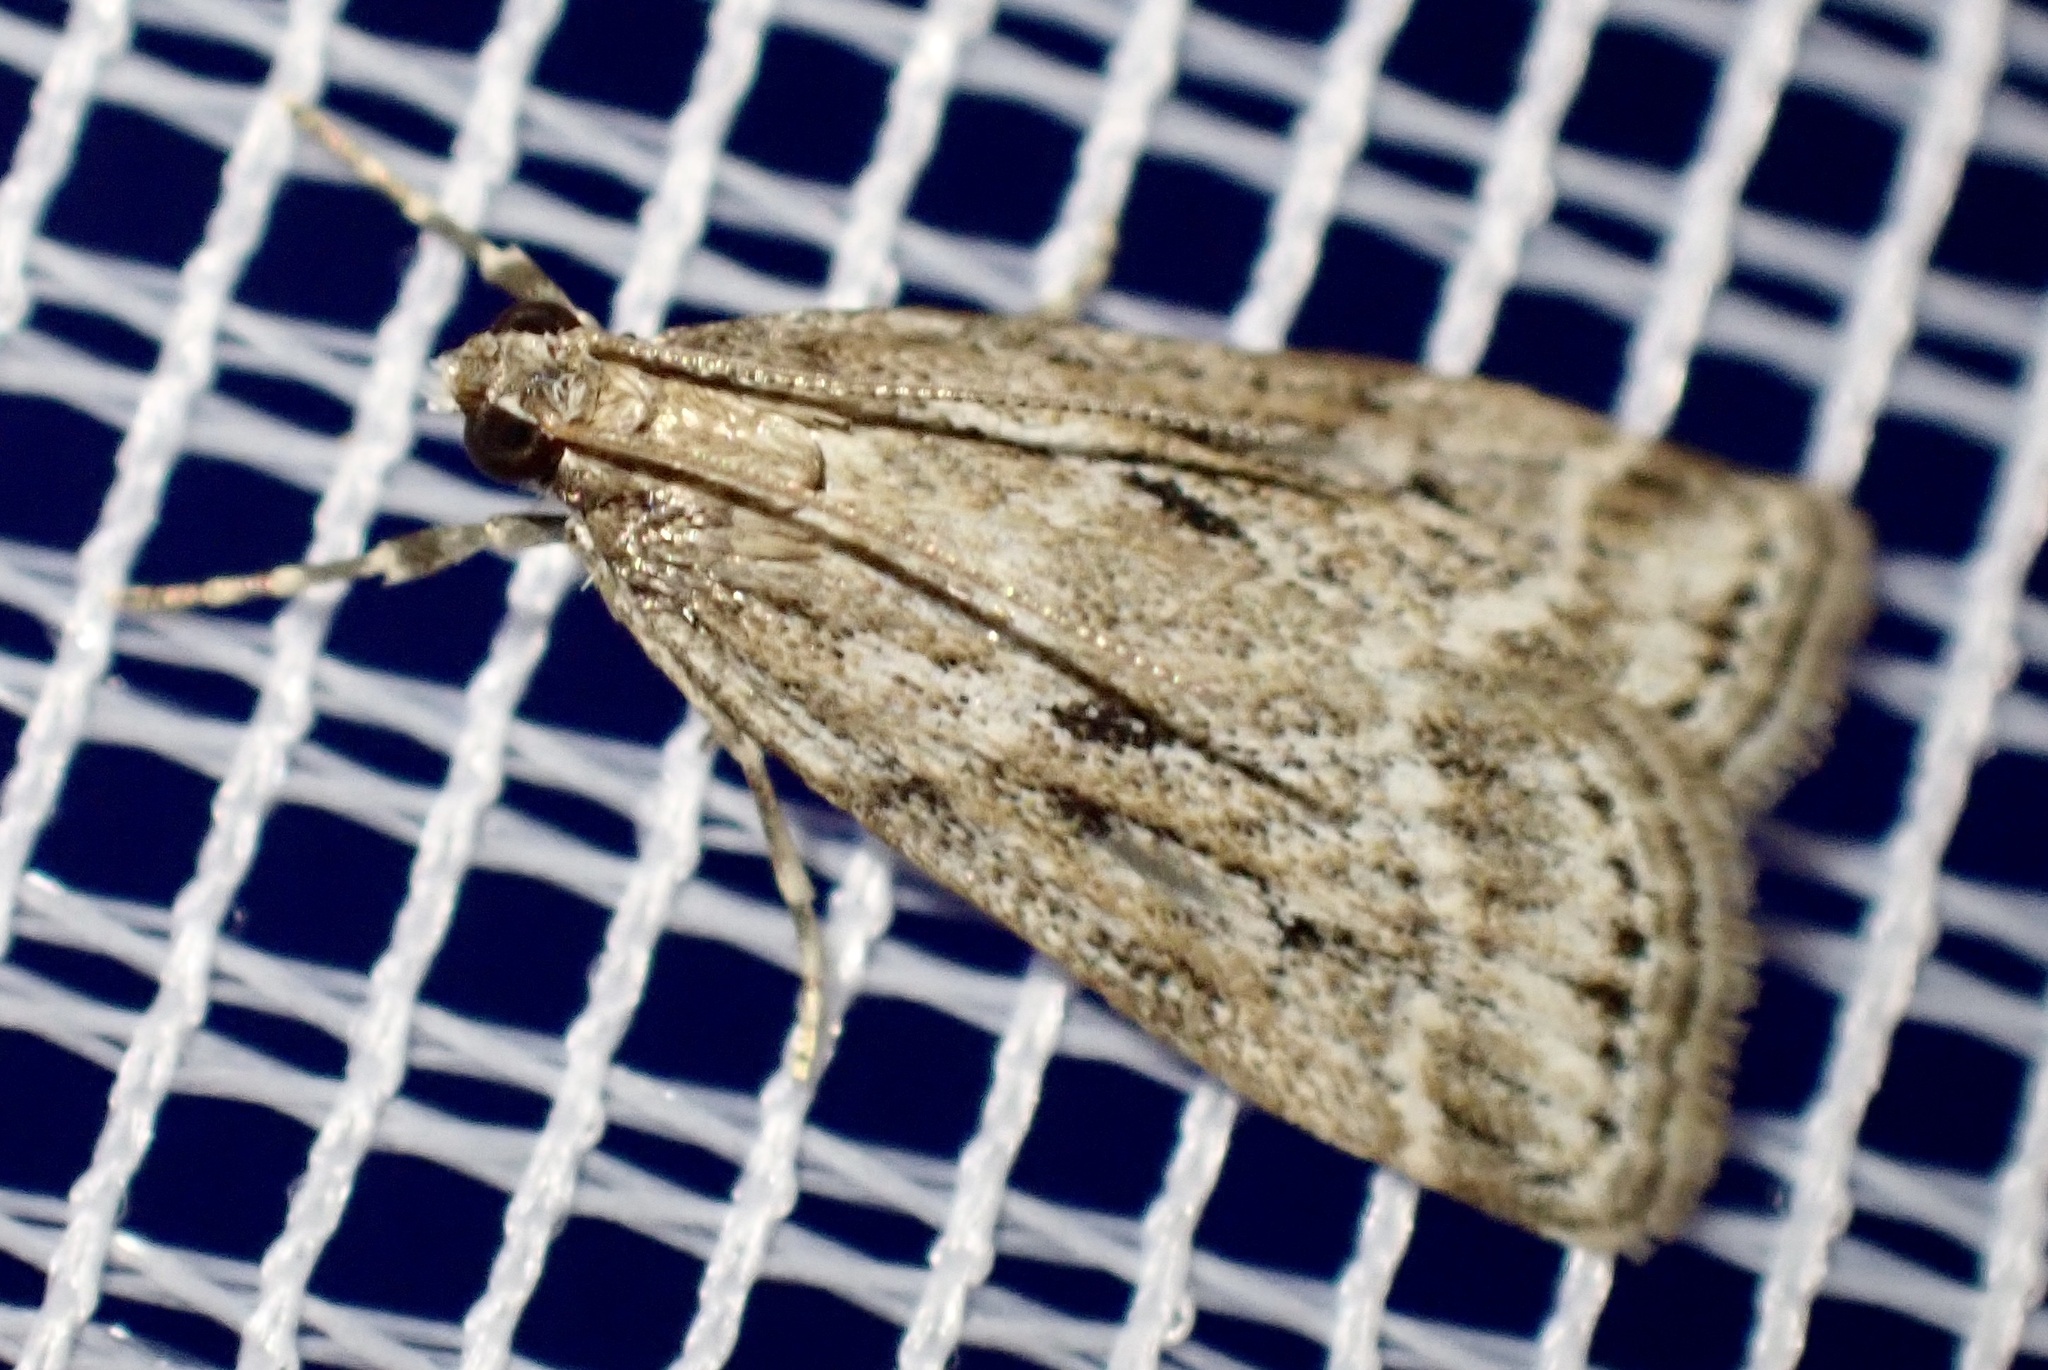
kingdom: Animalia
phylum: Arthropoda
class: Insecta
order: Lepidoptera
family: Crambidae
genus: Eudonia
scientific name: Eudonia truncicolella
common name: Ground-moss grey
